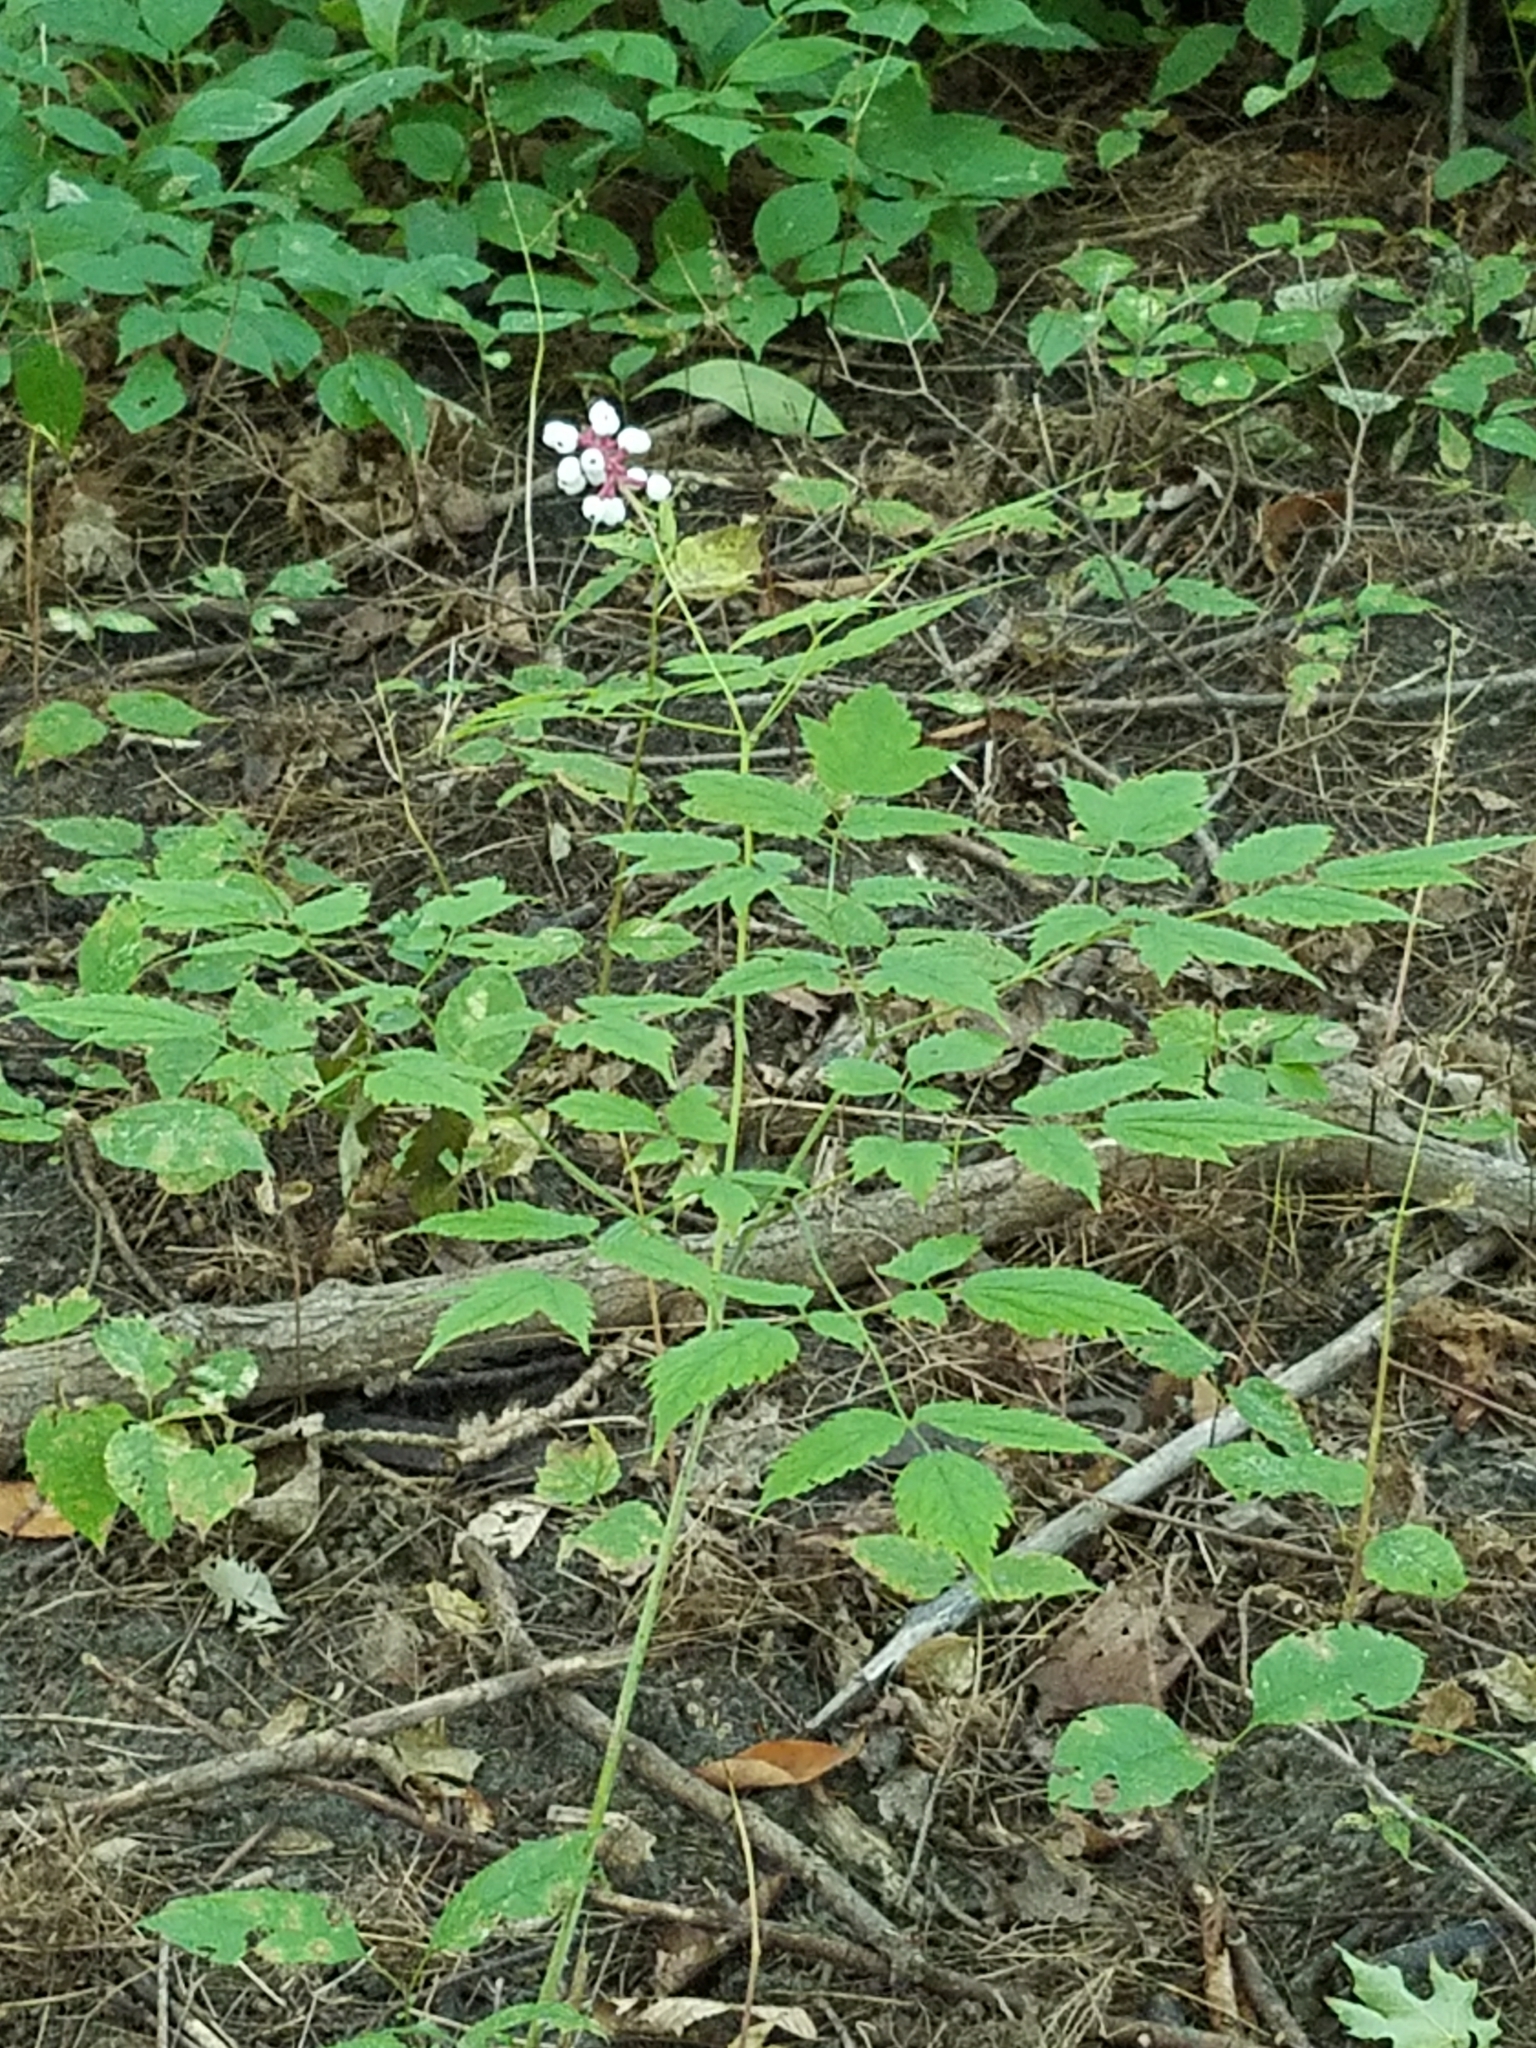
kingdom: Plantae
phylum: Tracheophyta
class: Magnoliopsida
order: Ranunculales
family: Ranunculaceae
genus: Actaea
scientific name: Actaea pachypoda
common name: Doll's-eyes
